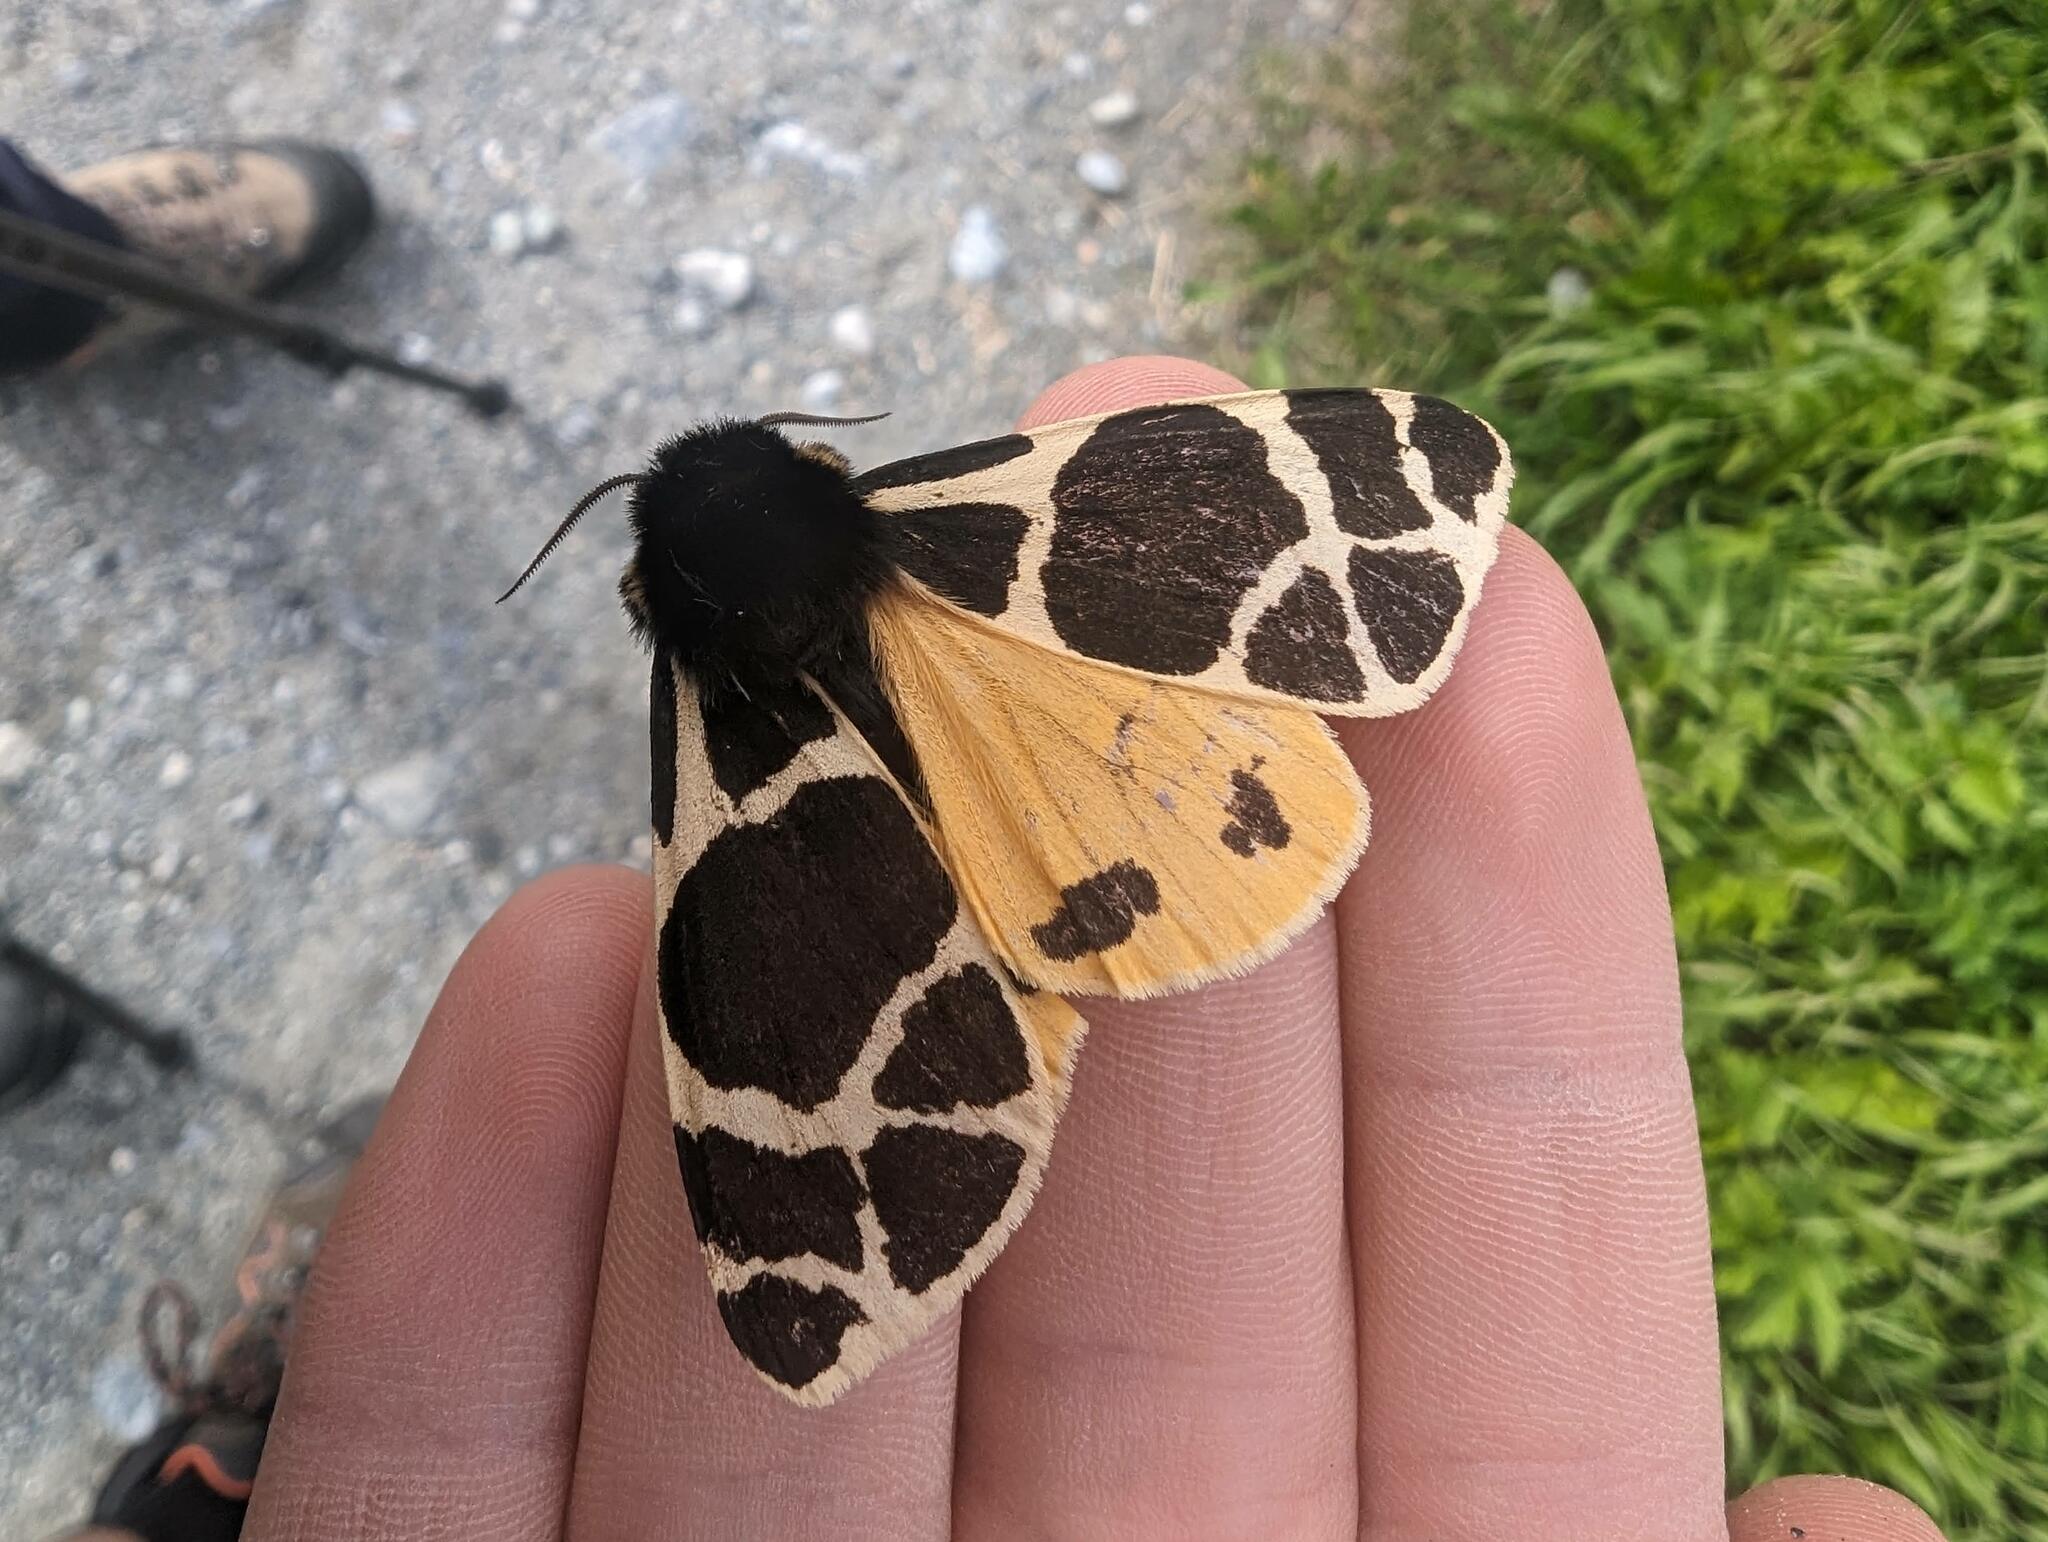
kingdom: Animalia
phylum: Arthropoda
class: Insecta
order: Lepidoptera
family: Erebidae
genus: Arctia
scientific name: Arctia flavia
